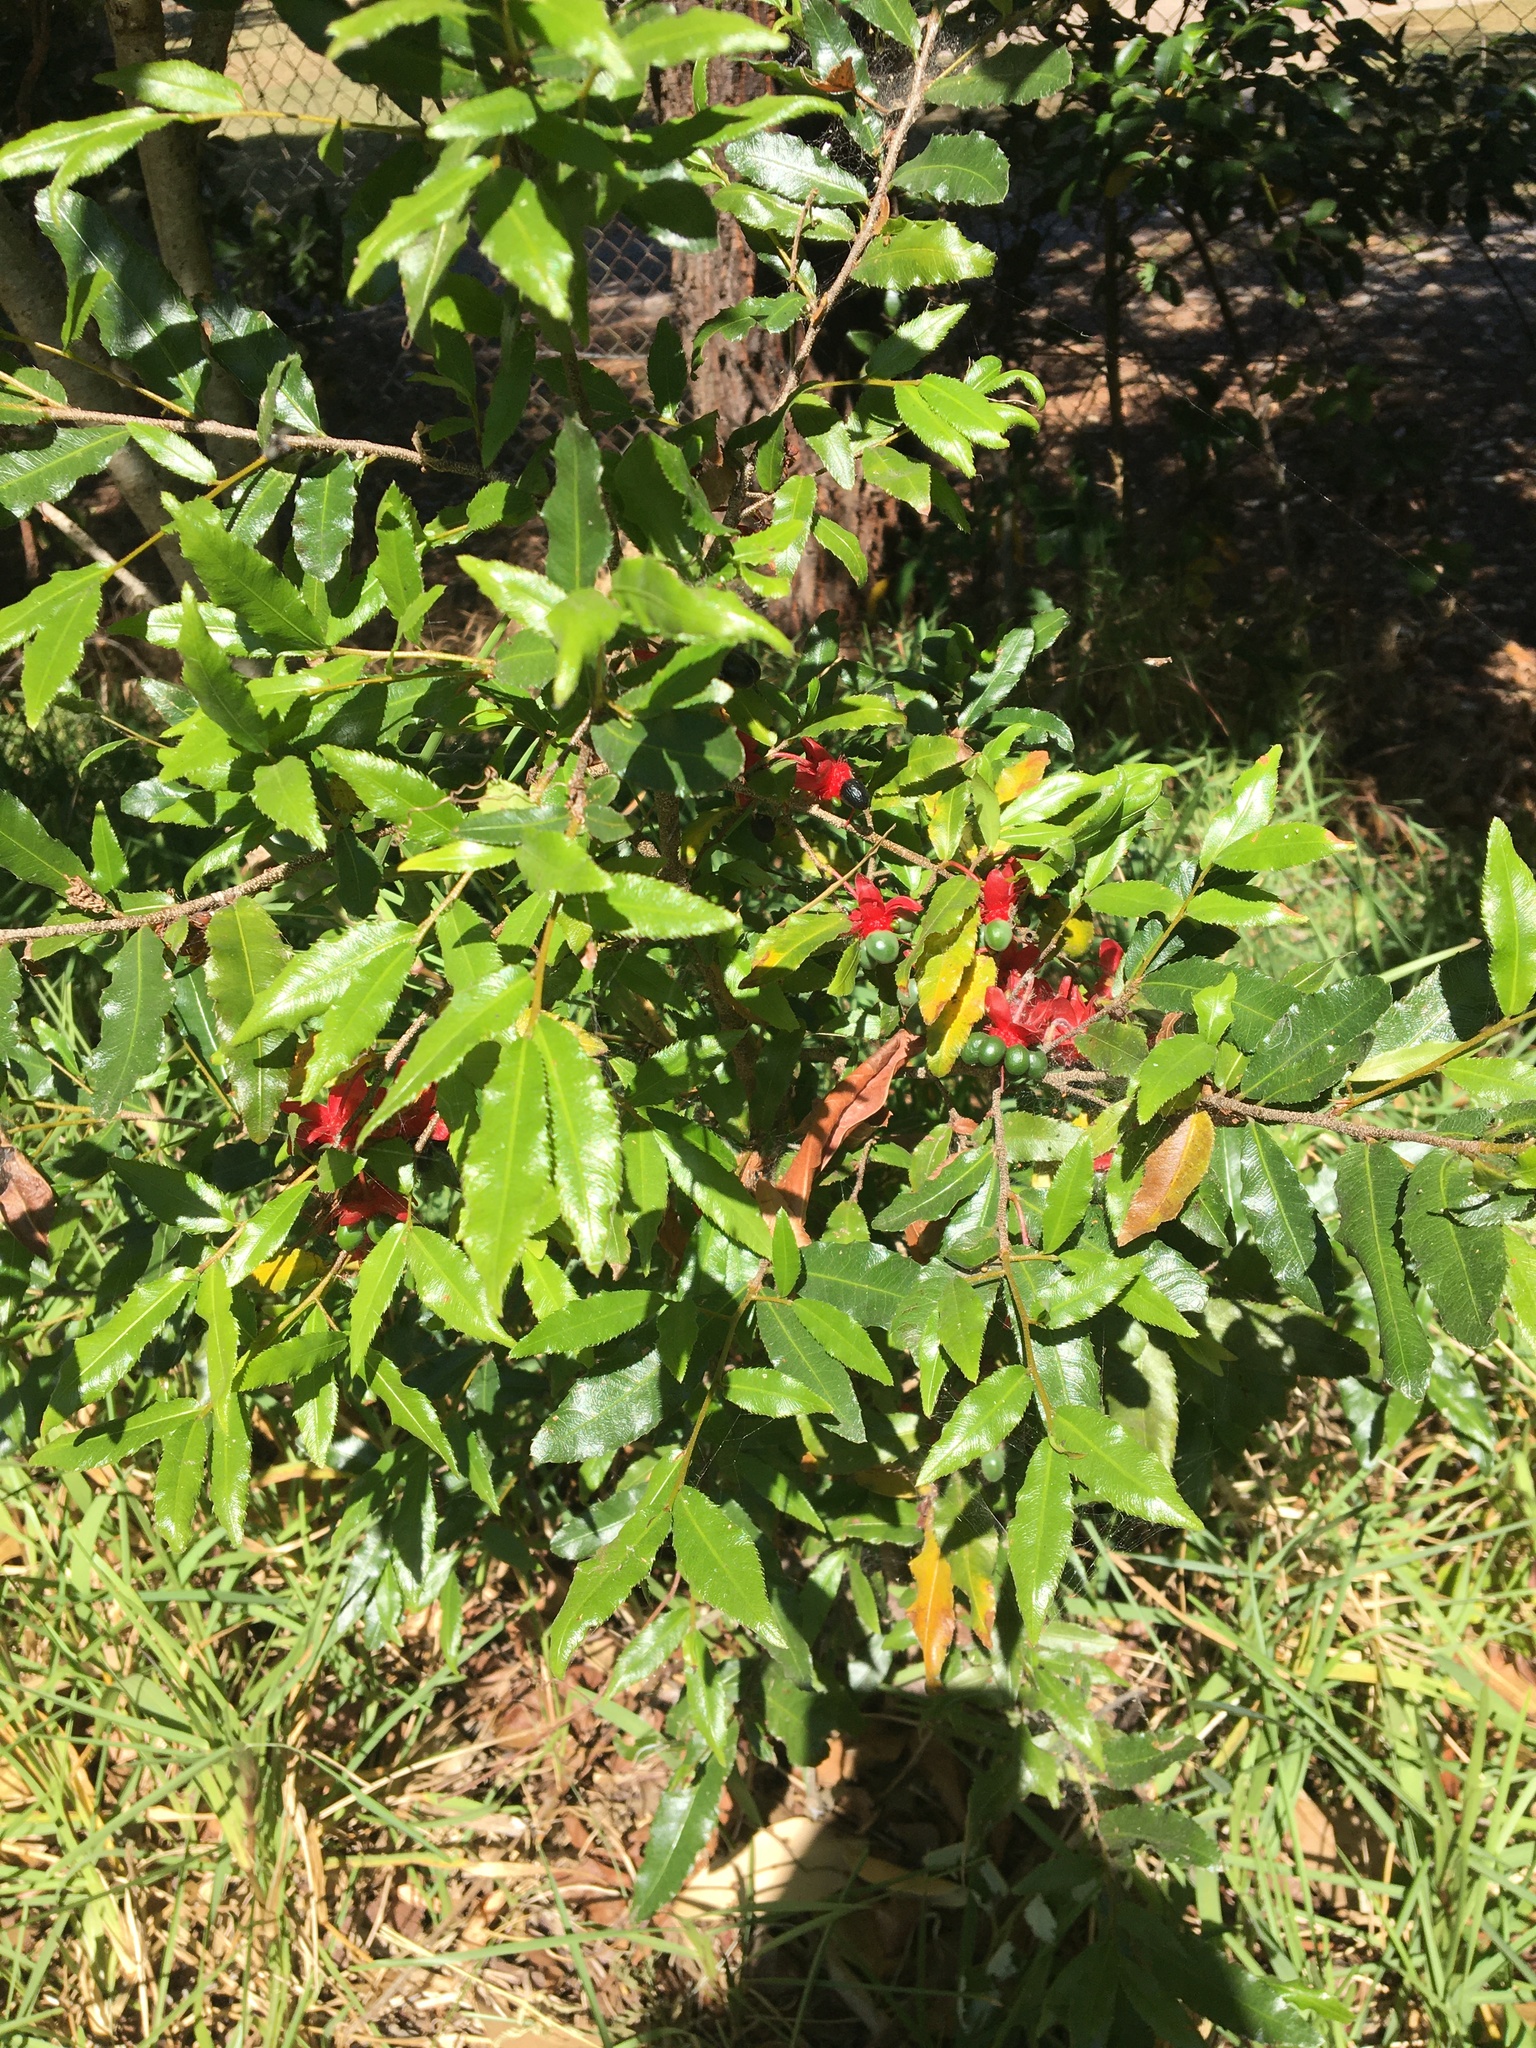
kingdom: Plantae
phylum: Tracheophyta
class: Magnoliopsida
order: Malpighiales
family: Ochnaceae
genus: Ochna
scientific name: Ochna serrulata
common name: Mickey mouse plant
